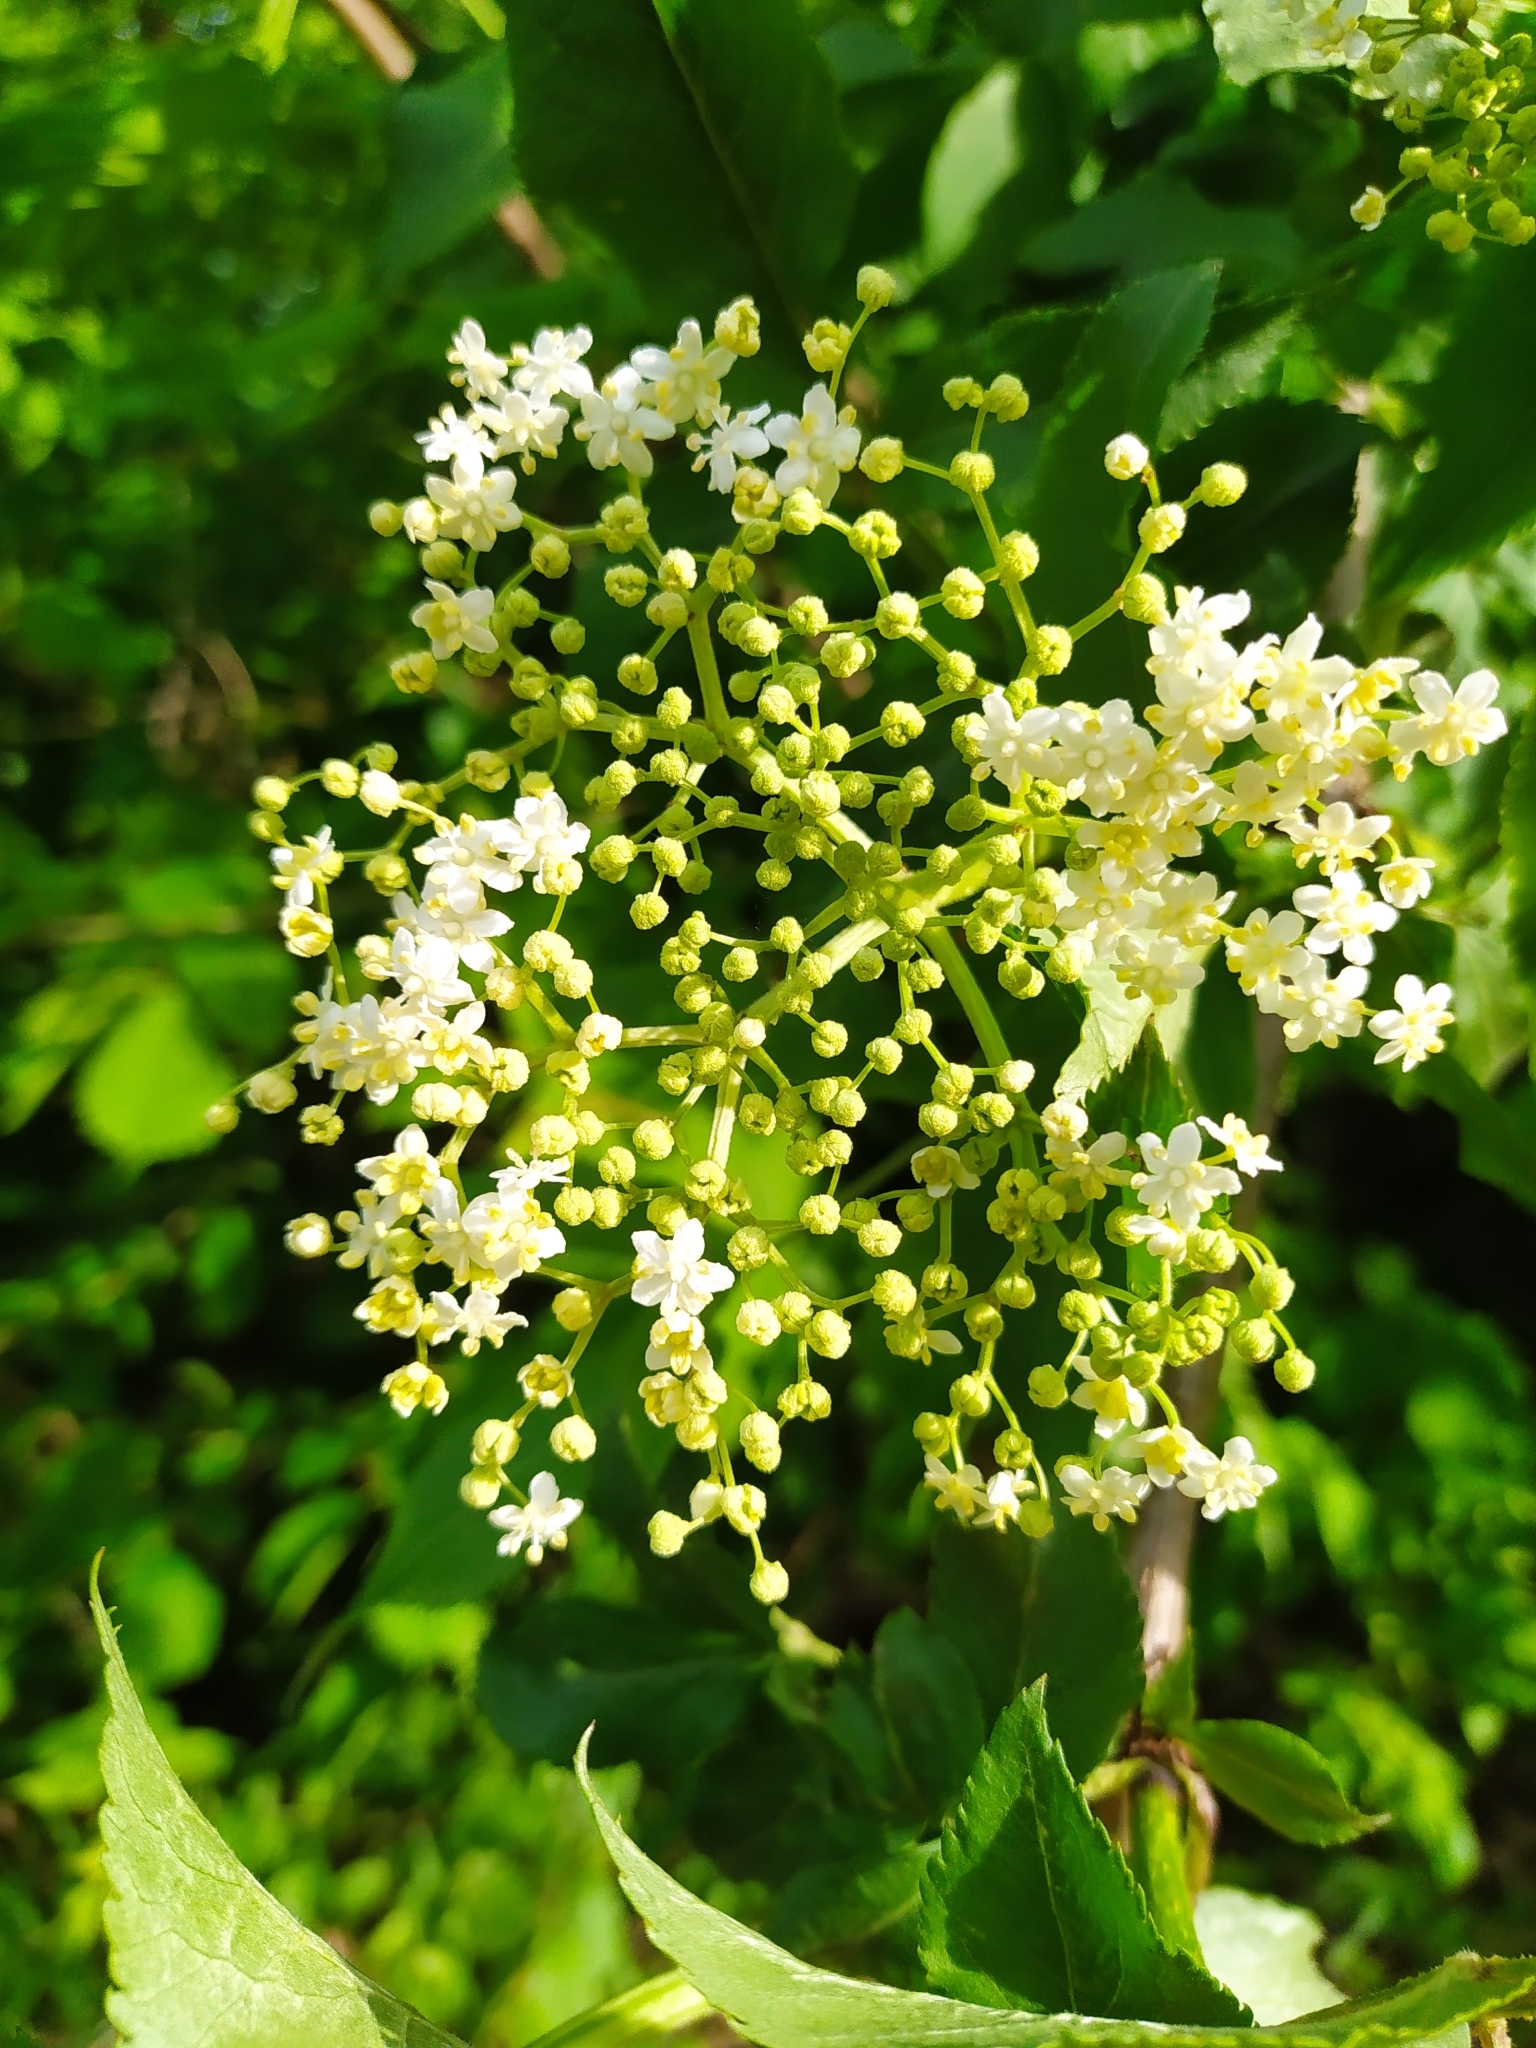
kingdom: Plantae
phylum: Tracheophyta
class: Magnoliopsida
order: Dipsacales
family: Viburnaceae
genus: Sambucus
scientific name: Sambucus nigra
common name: Elder
